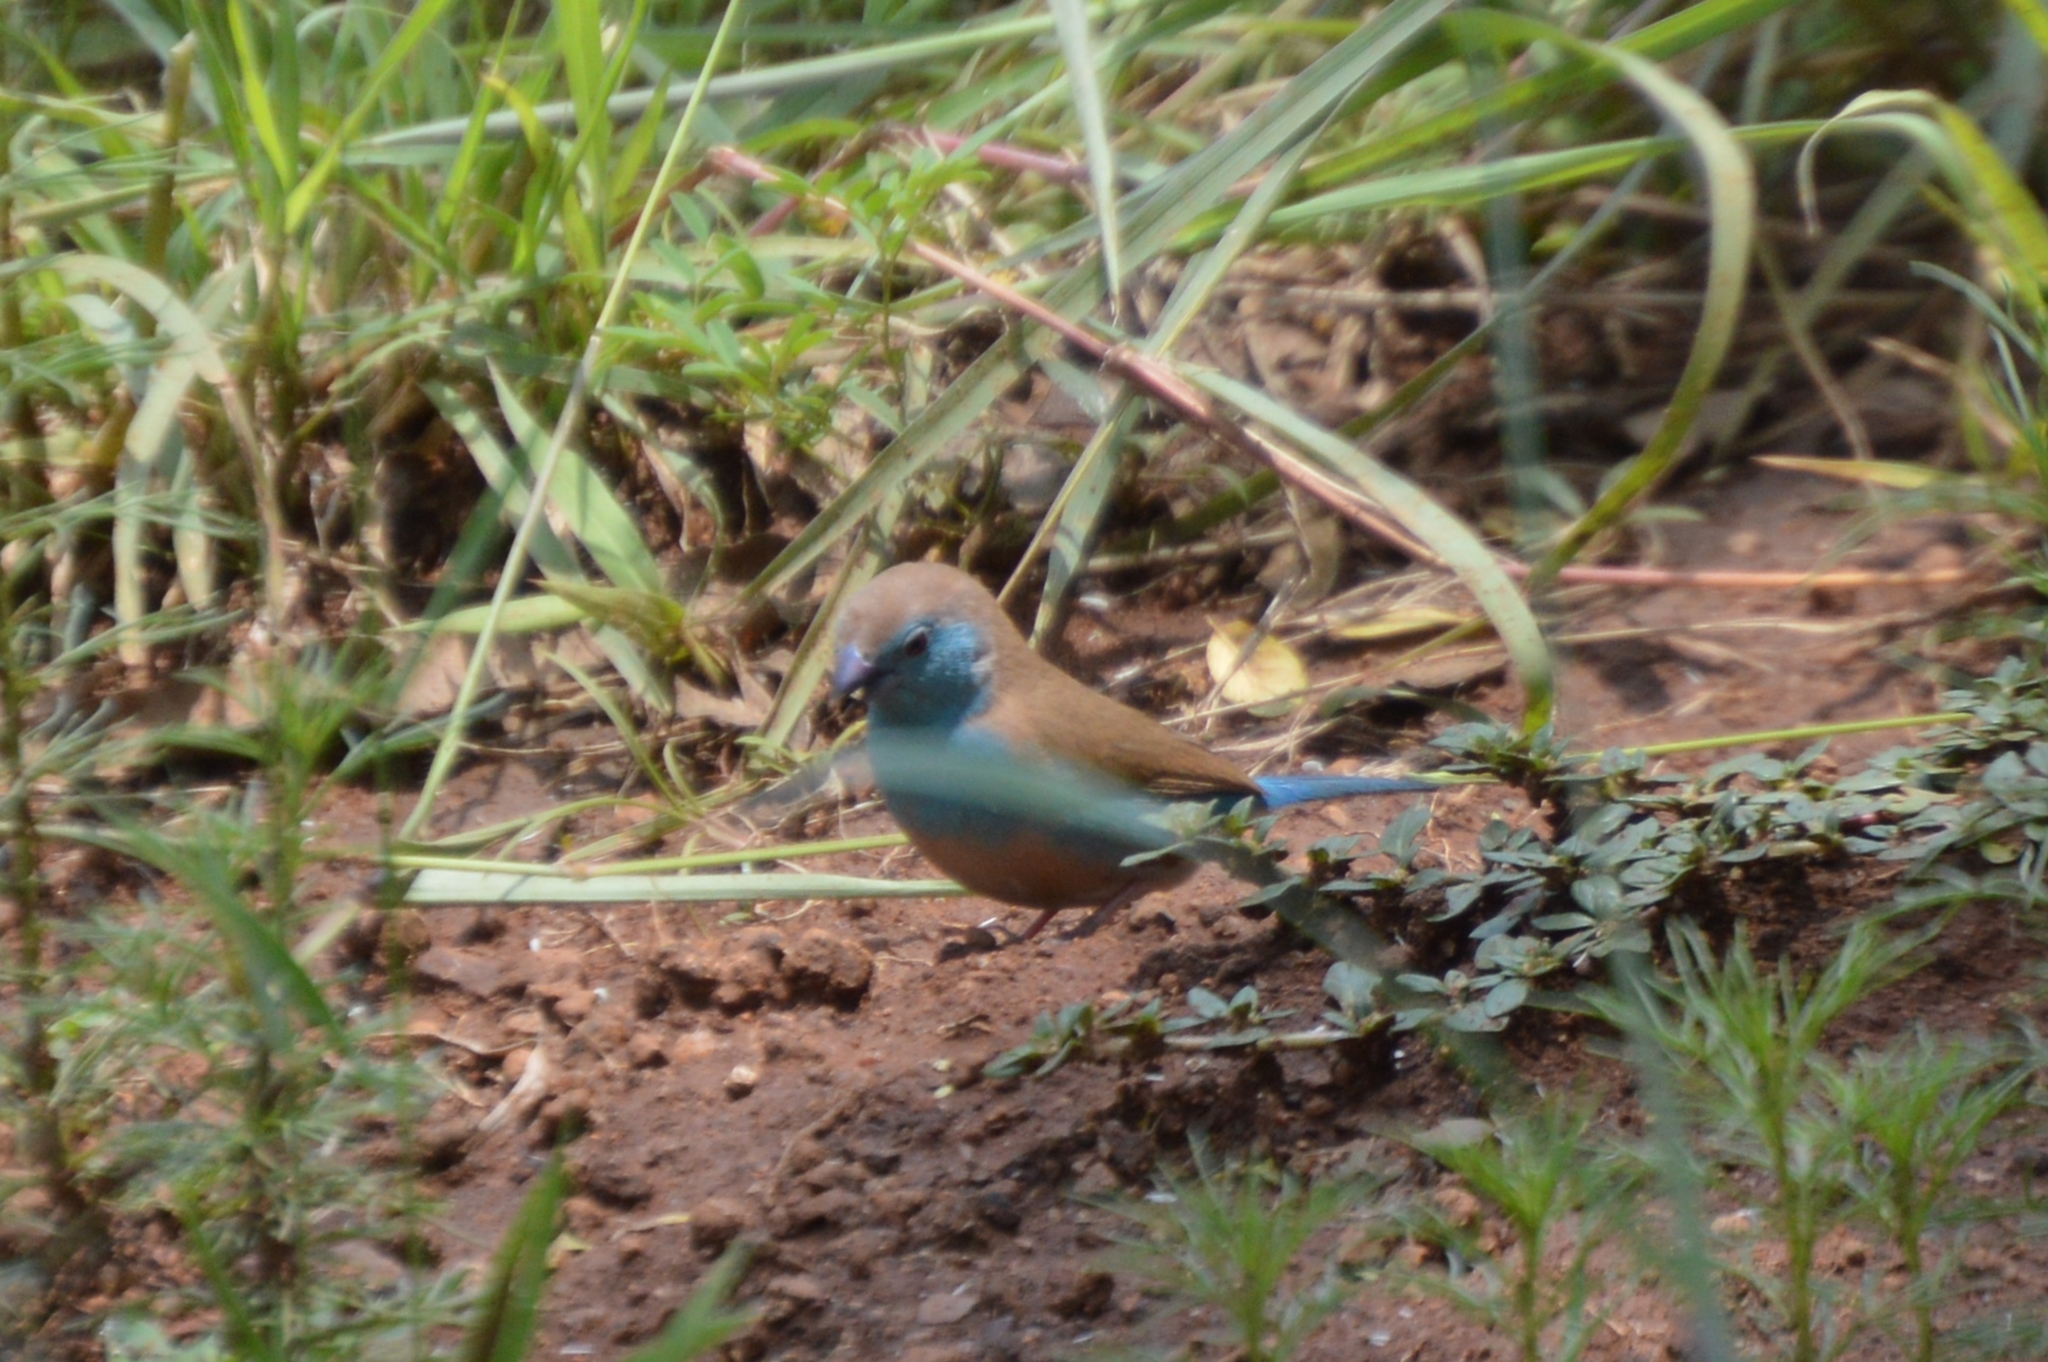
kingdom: Animalia
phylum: Chordata
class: Aves
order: Passeriformes
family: Estrildidae
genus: Uraeginthus
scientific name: Uraeginthus angolensis
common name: Blue waxbill
